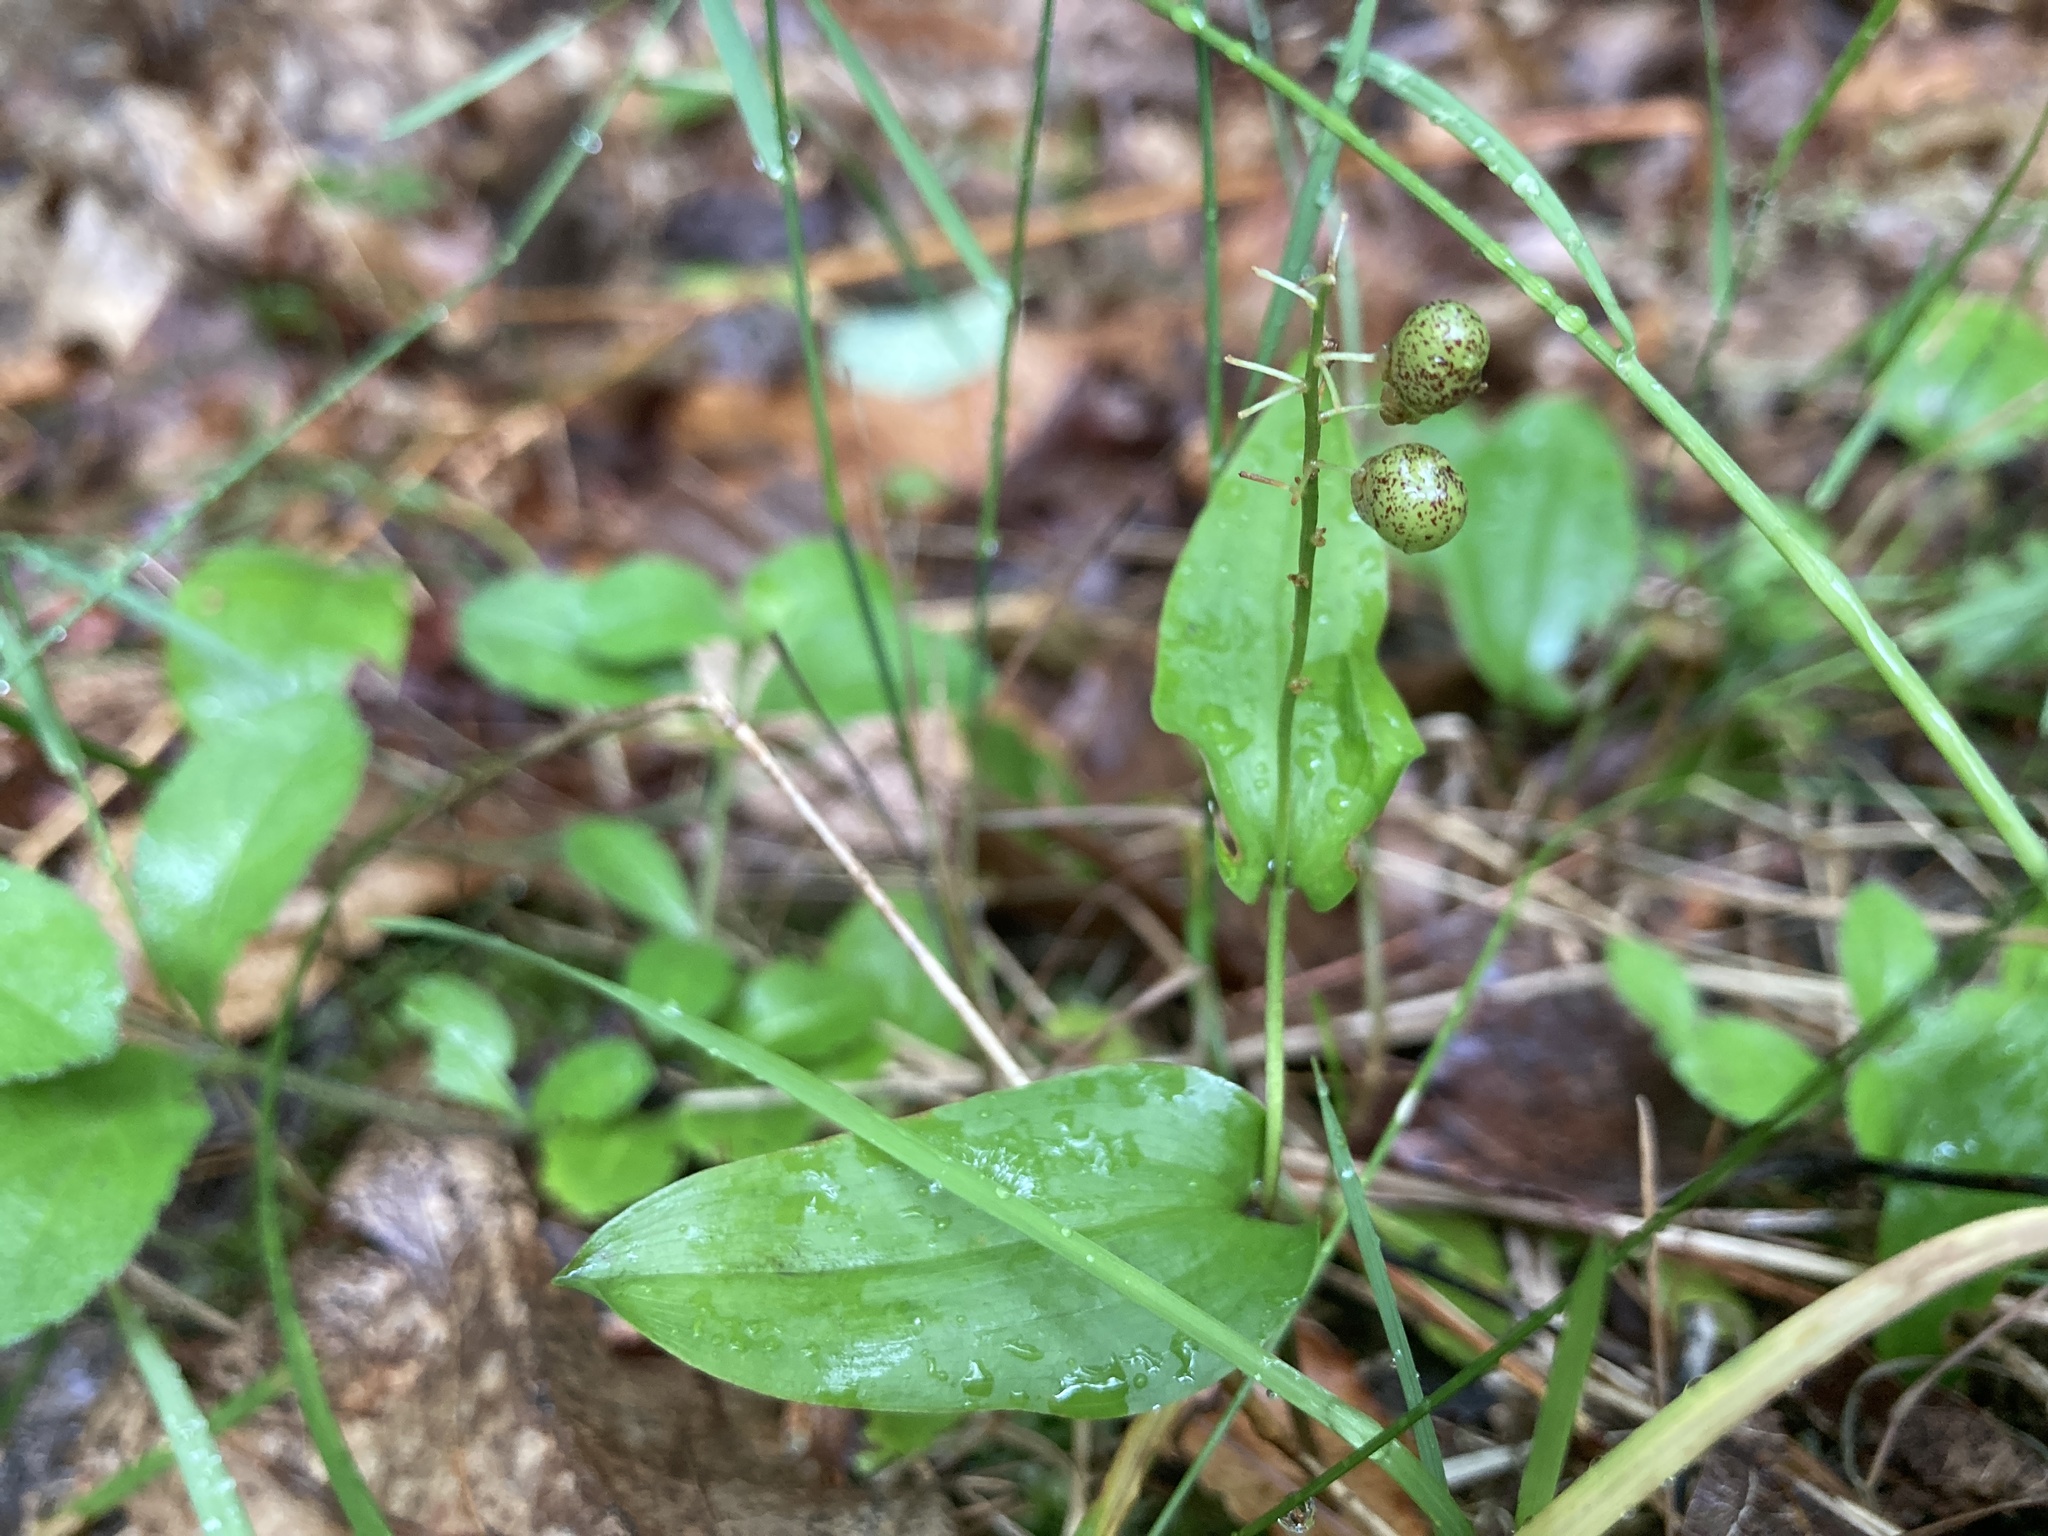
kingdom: Plantae
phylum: Tracheophyta
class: Liliopsida
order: Asparagales
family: Asparagaceae
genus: Maianthemum
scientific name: Maianthemum canadense
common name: False lily-of-the-valley
